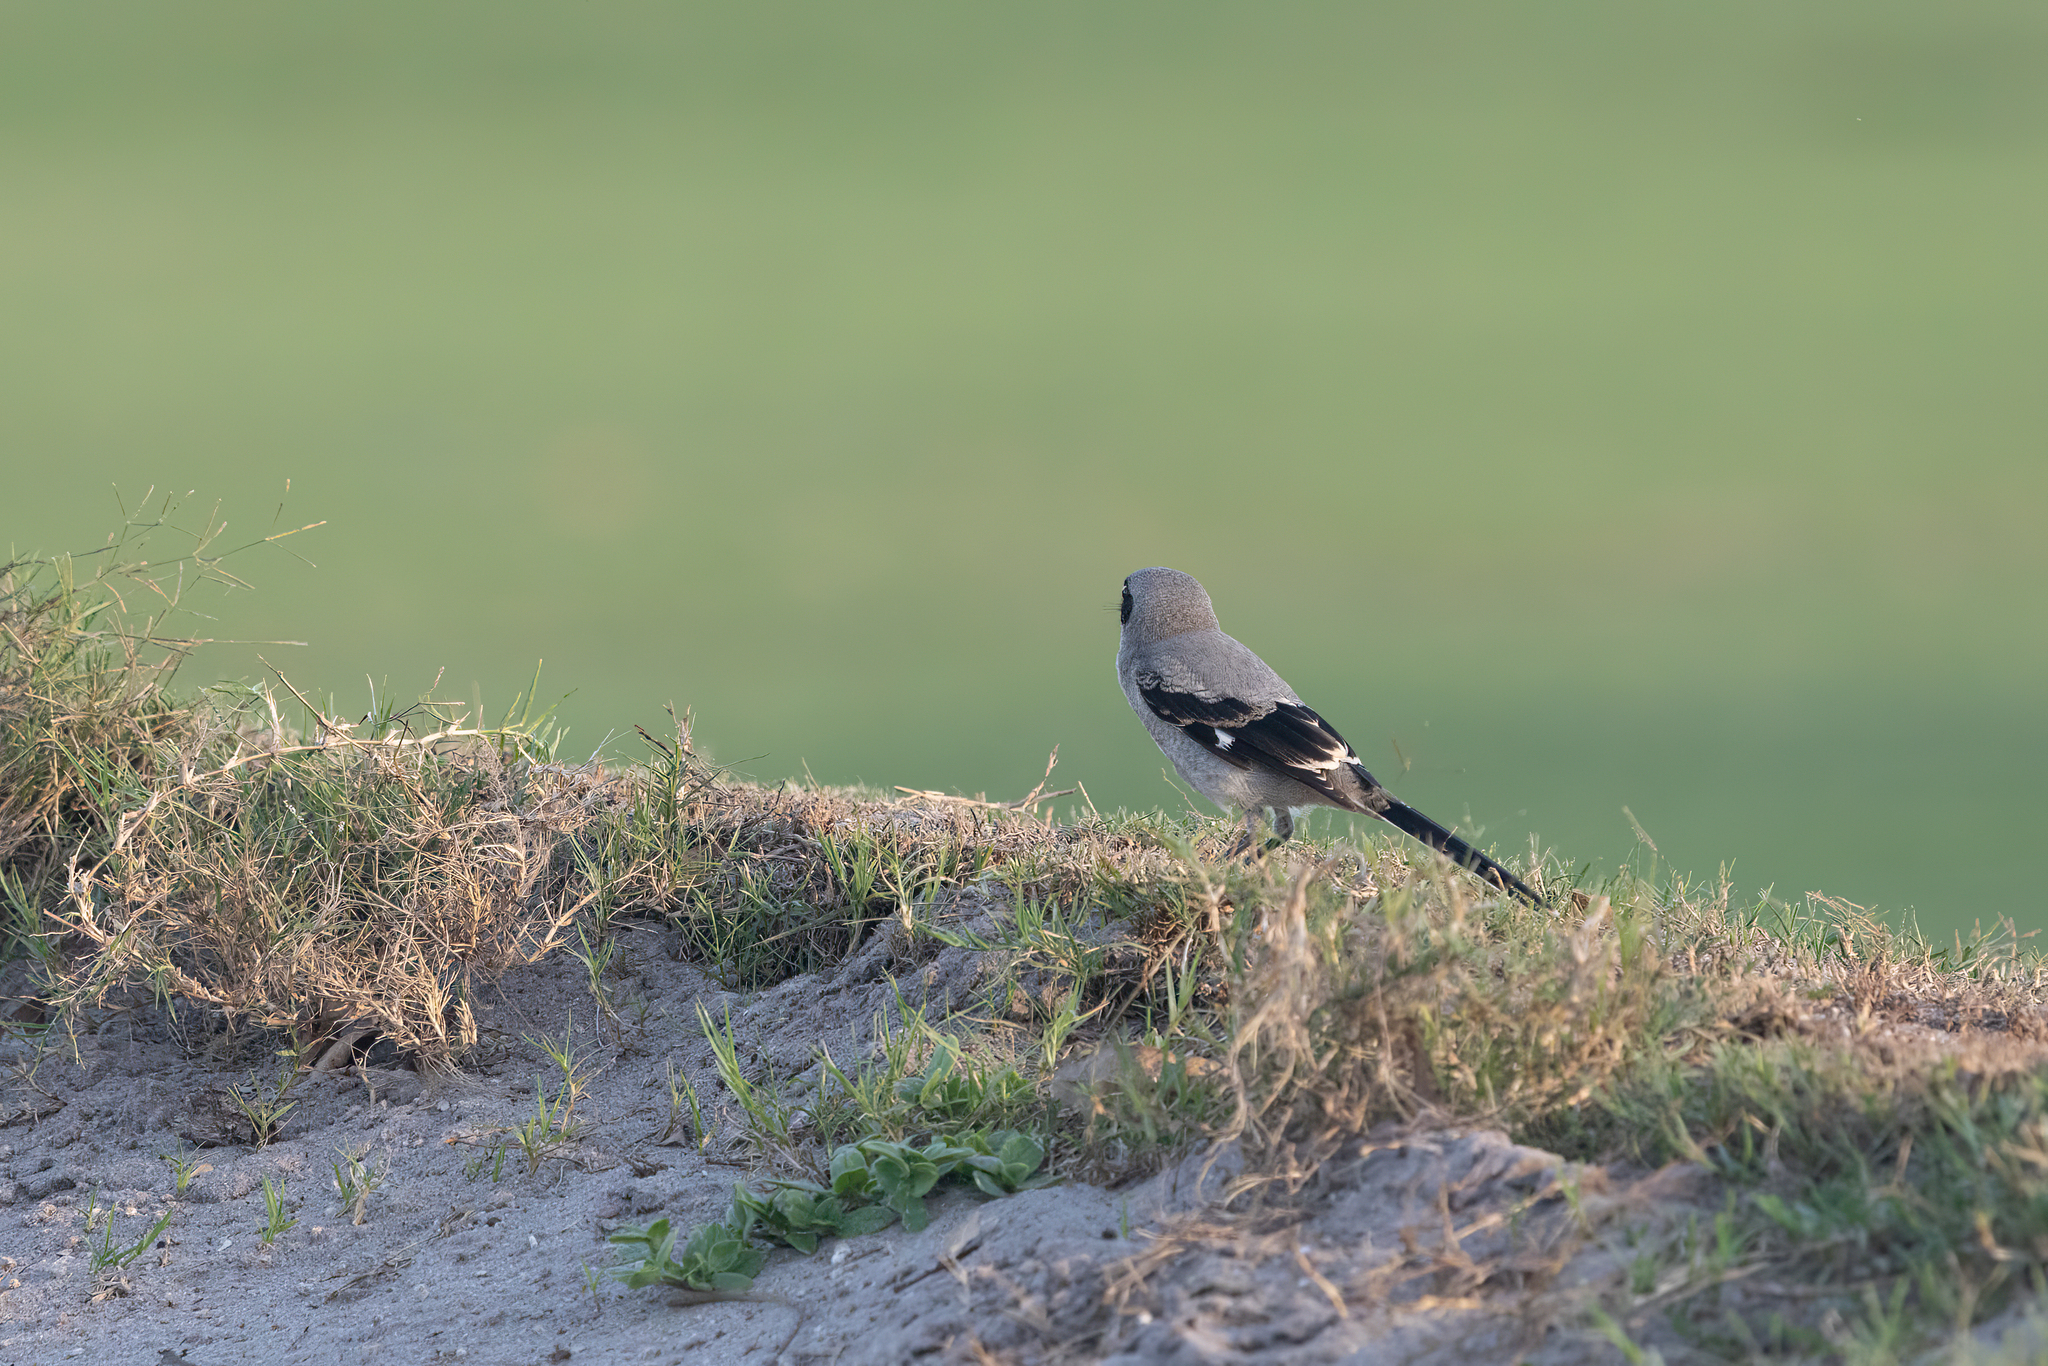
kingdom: Animalia
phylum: Chordata
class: Aves
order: Passeriformes
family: Laniidae
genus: Lanius
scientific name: Lanius ludovicianus
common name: Loggerhead shrike
